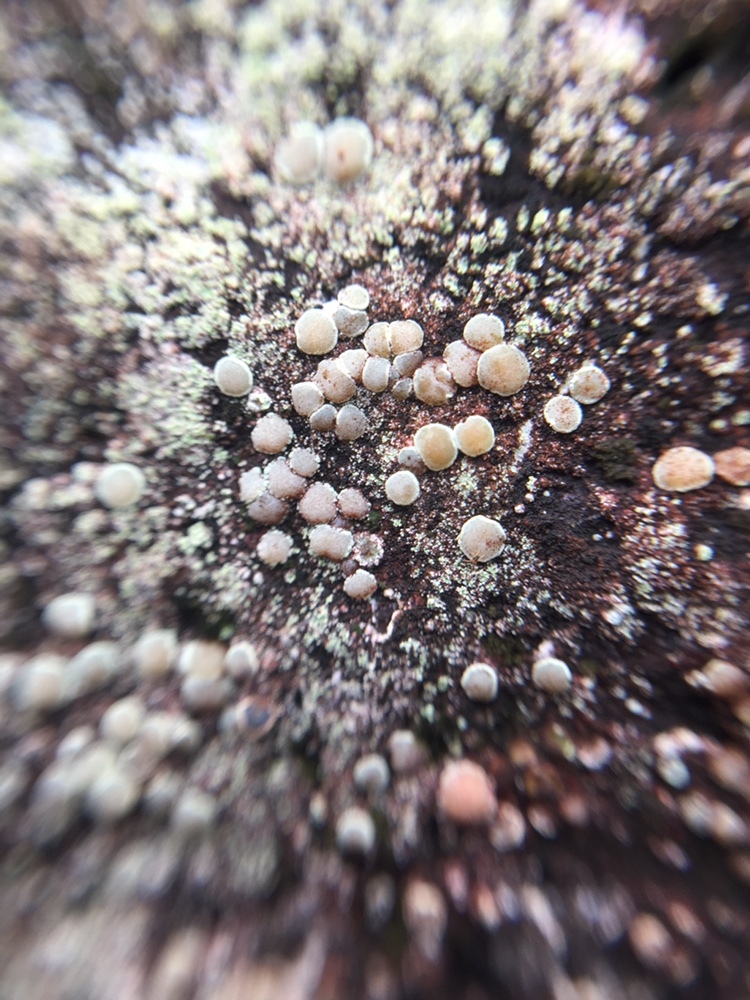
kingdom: Fungi
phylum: Ascomycota
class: Lecanoromycetes
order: Lecanorales
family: Lecanoraceae
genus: Polyozosia
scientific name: Polyozosia semipallida
